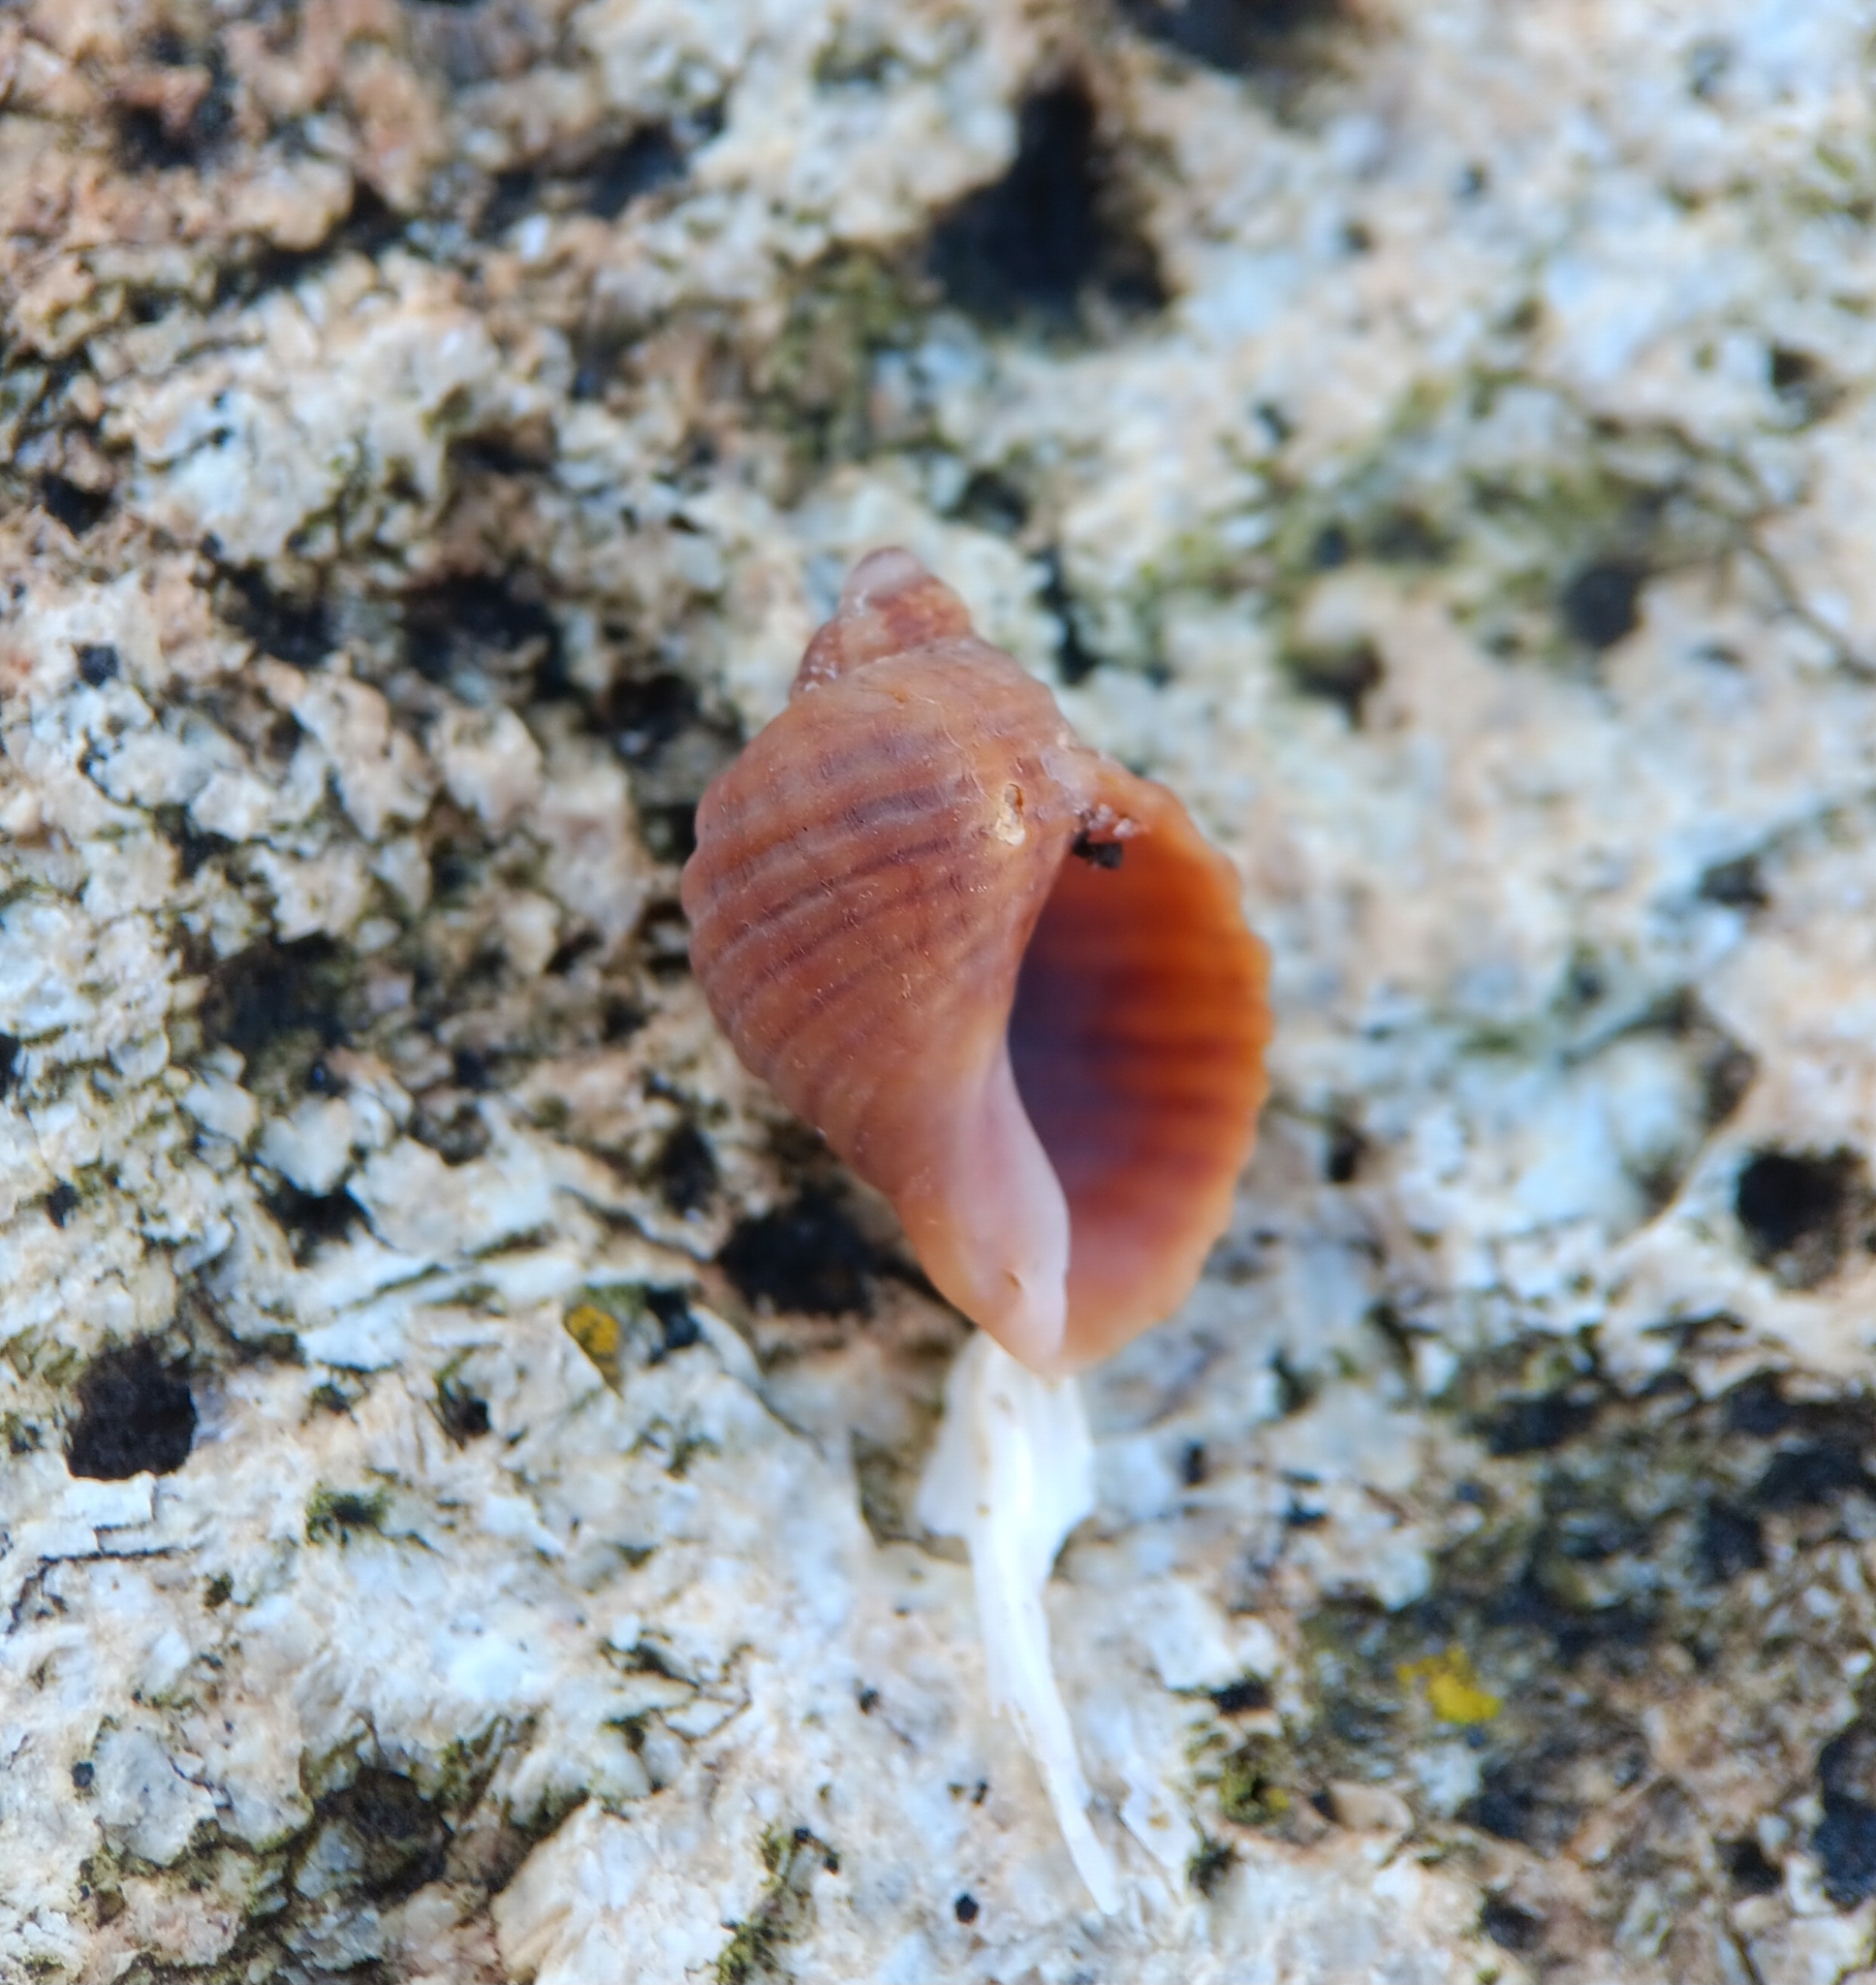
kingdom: Animalia
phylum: Mollusca
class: Gastropoda
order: Neogastropoda
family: Muricidae
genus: Nucella
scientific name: Nucella lapillus
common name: Dog whelk
